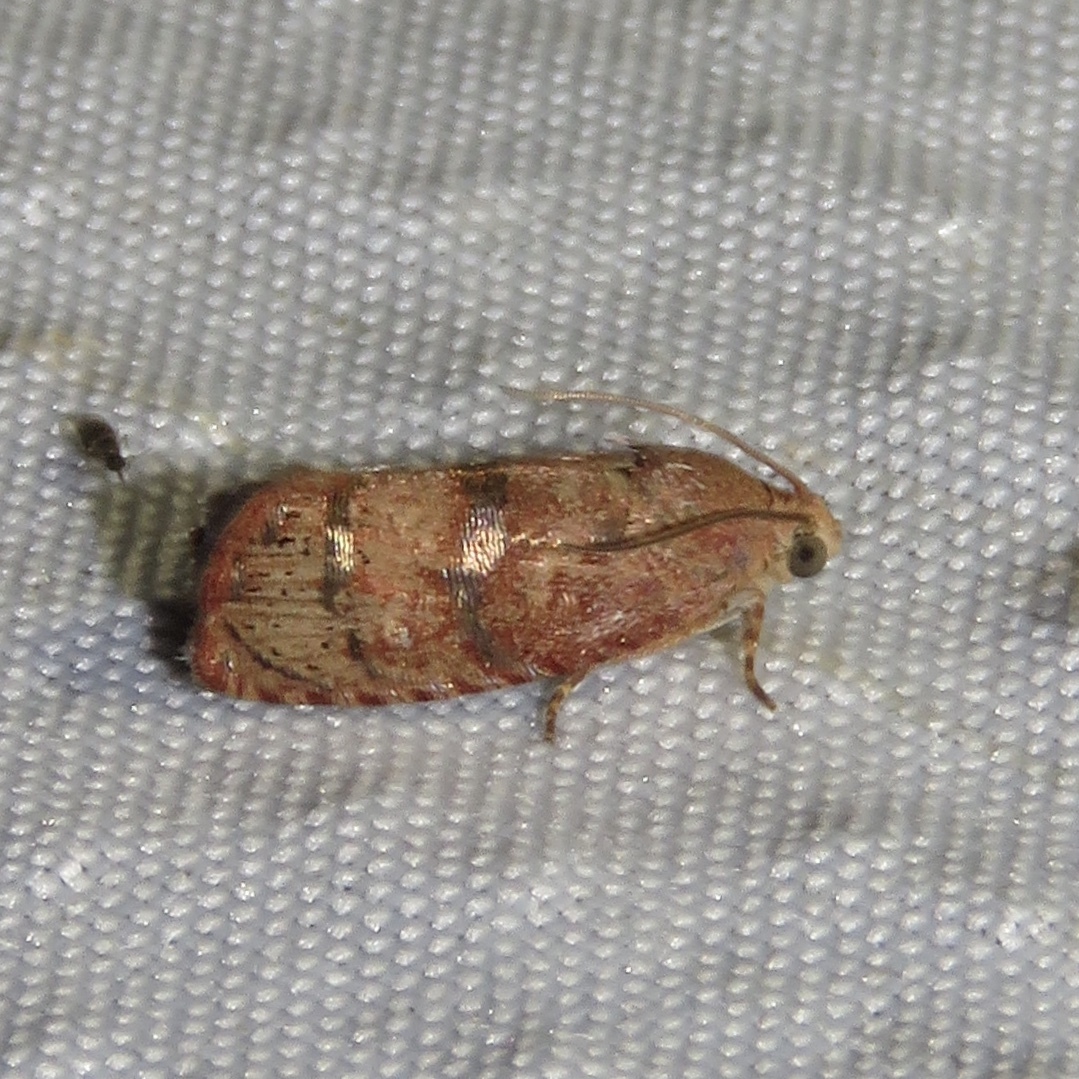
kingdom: Animalia
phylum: Arthropoda
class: Insecta
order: Lepidoptera
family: Tortricidae
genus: Cydia
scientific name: Cydia latiferreana
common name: Filbertworm moth
